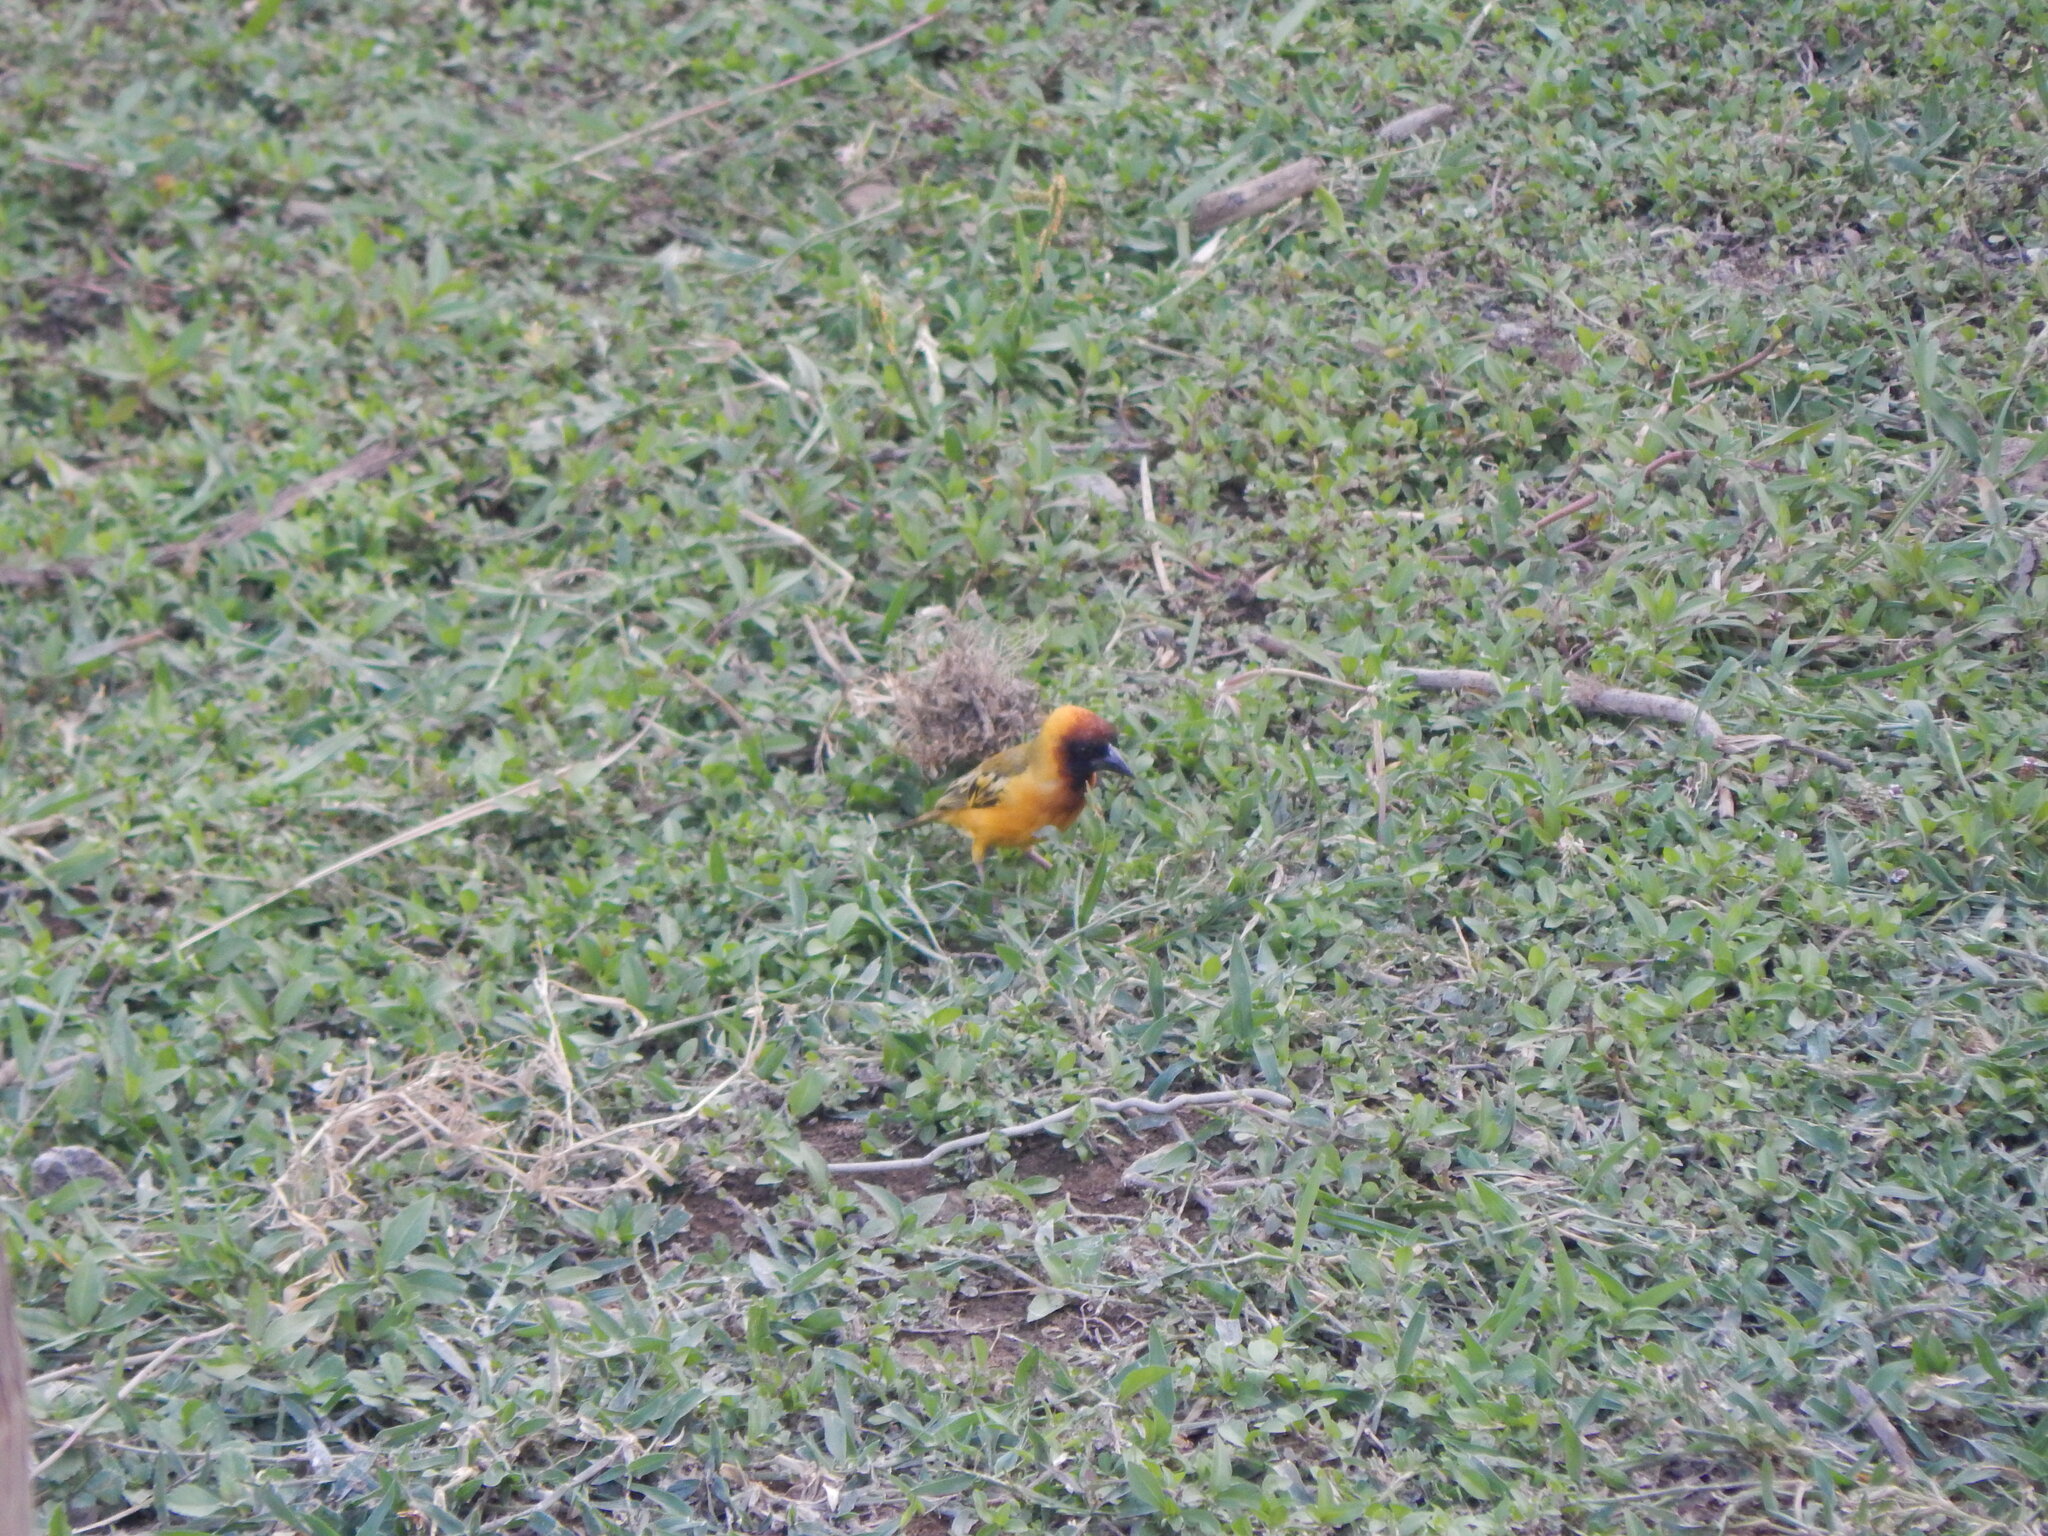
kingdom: Animalia
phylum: Chordata
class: Aves
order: Passeriformes
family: Ploceidae
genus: Ploceus
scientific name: Ploceus taeniopterus
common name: Northern masked weaver
